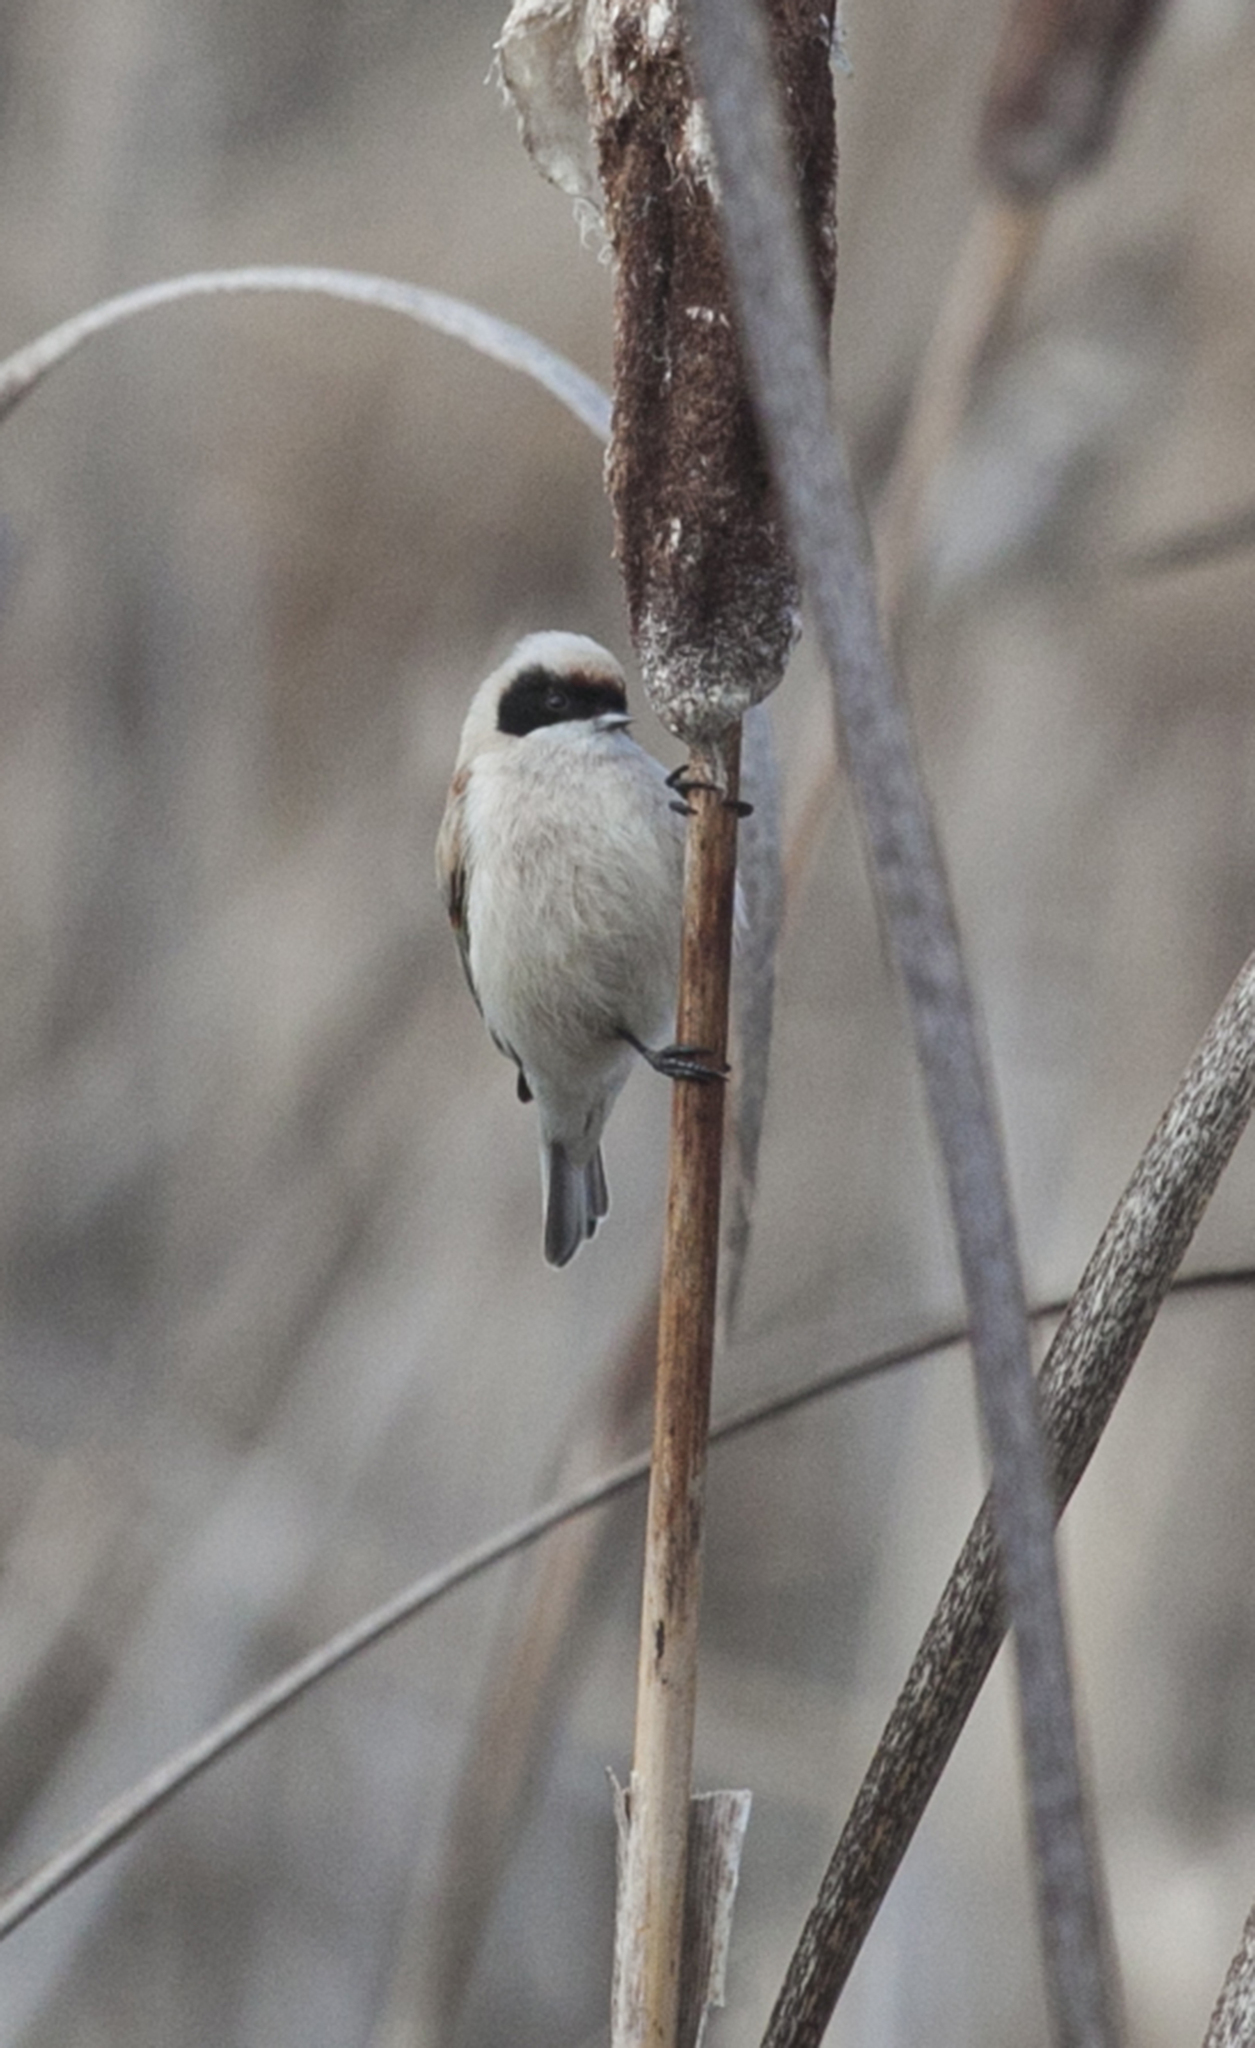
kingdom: Animalia
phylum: Chordata
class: Aves
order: Passeriformes
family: Remizidae
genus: Remiz
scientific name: Remiz pendulinus
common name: Eurasian penduline tit
